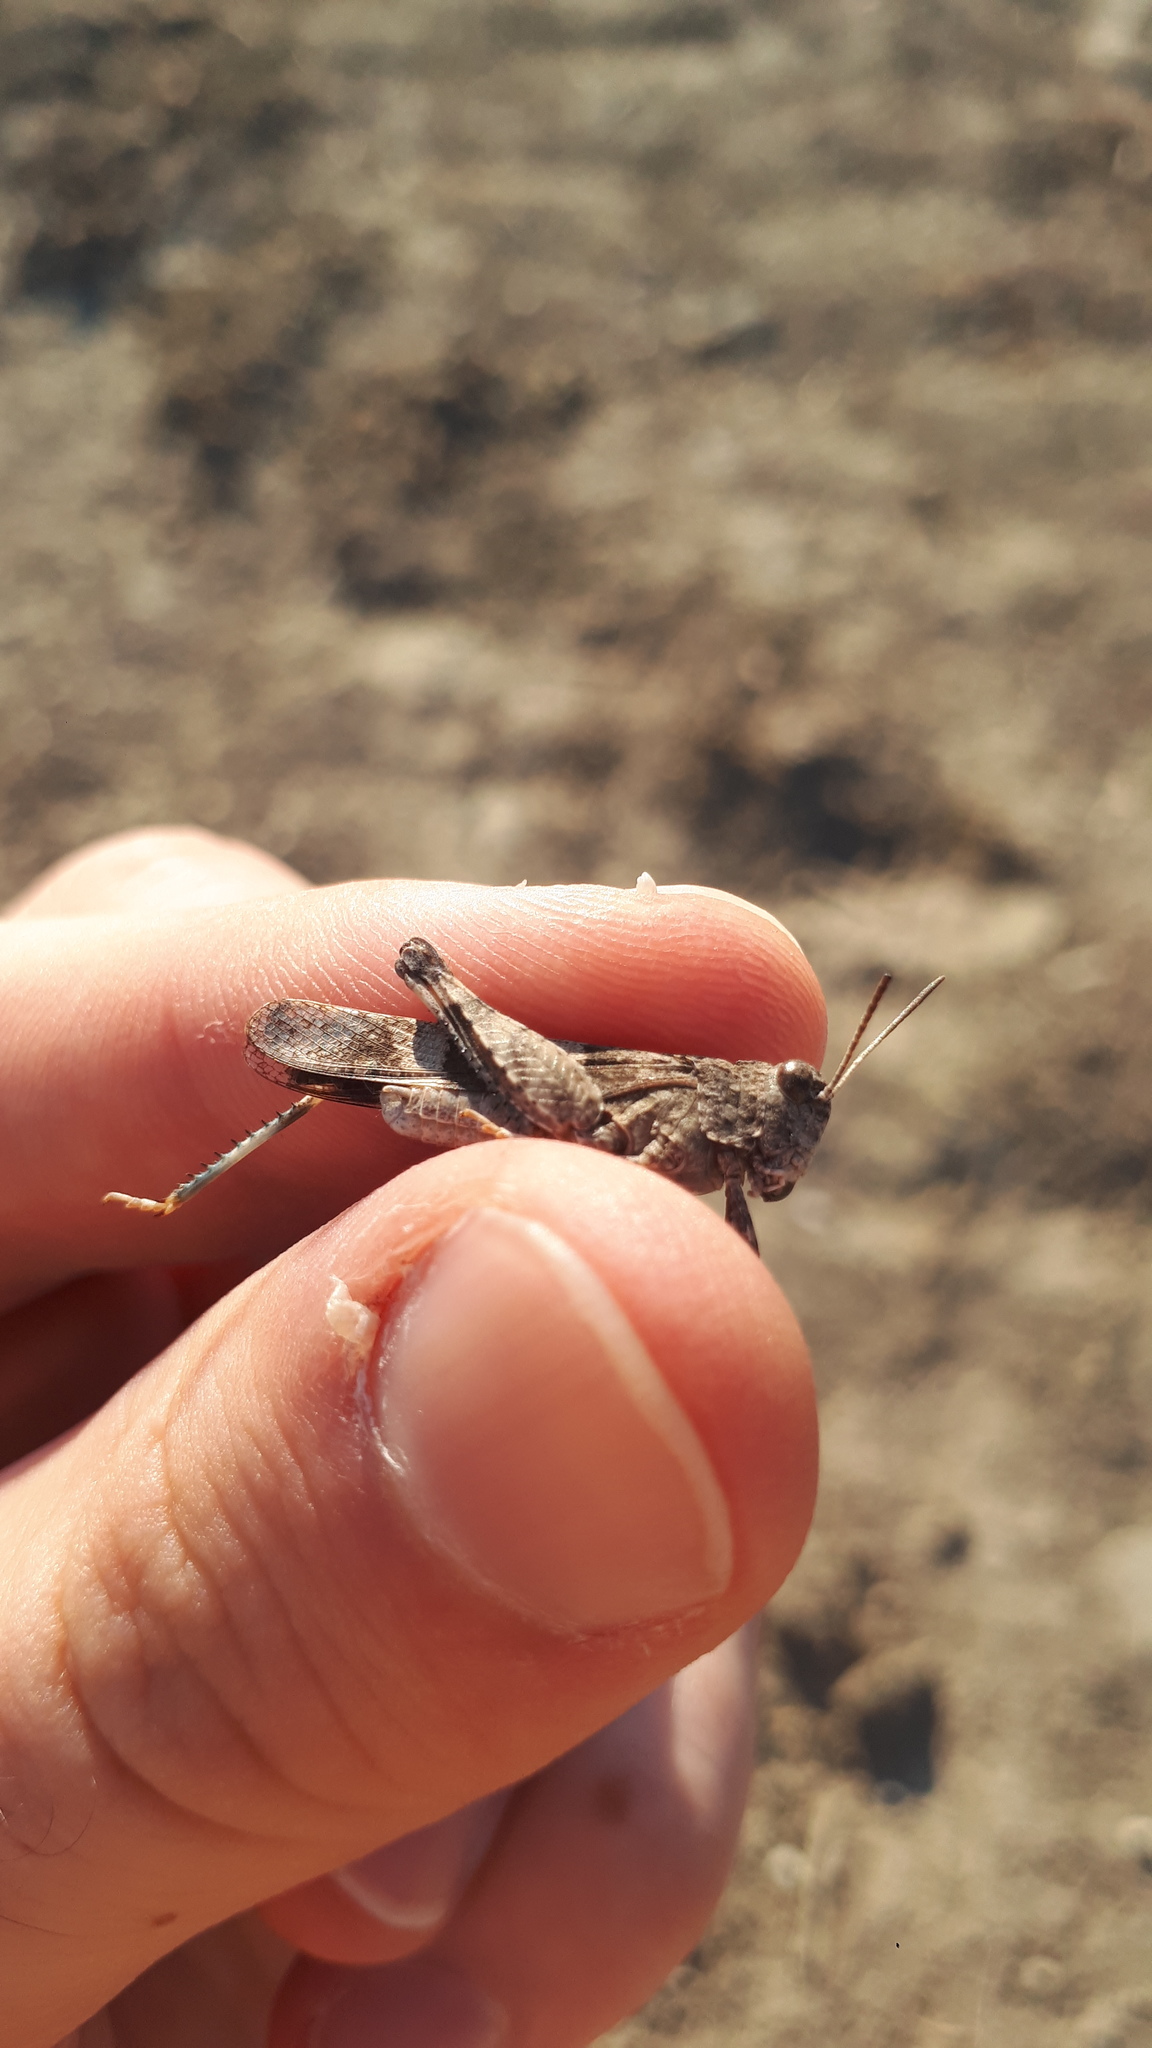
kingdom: Animalia
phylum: Arthropoda
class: Insecta
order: Orthoptera
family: Acrididae
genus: Oedipoda
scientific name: Oedipoda caerulescens
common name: Blue-winged grasshopper
